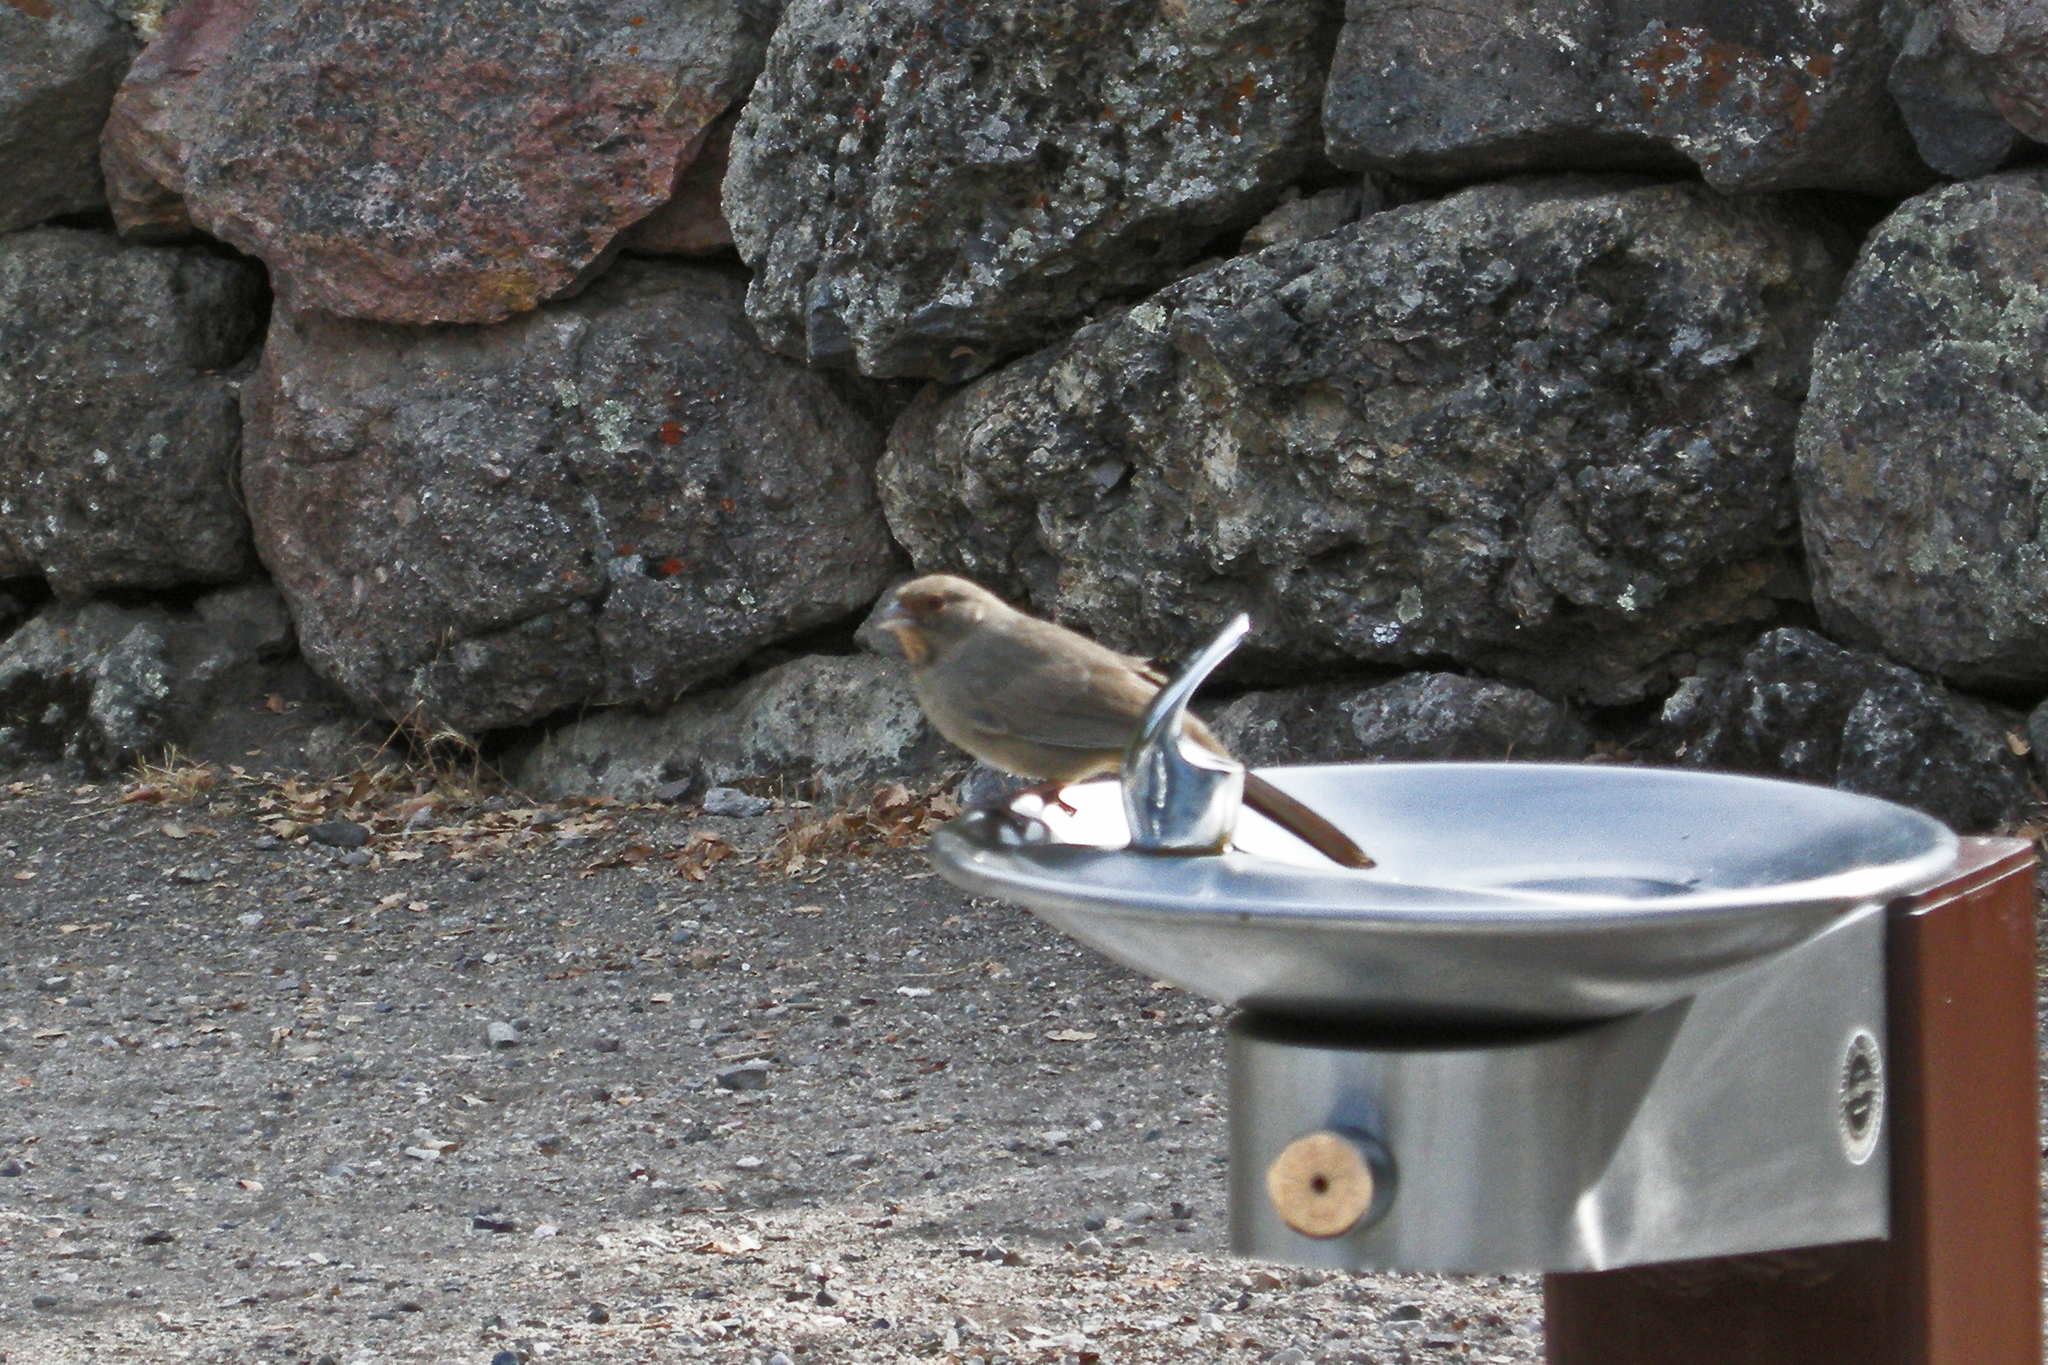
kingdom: Animalia
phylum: Chordata
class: Aves
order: Passeriformes
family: Passerellidae
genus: Melozone
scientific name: Melozone crissalis
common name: California towhee
